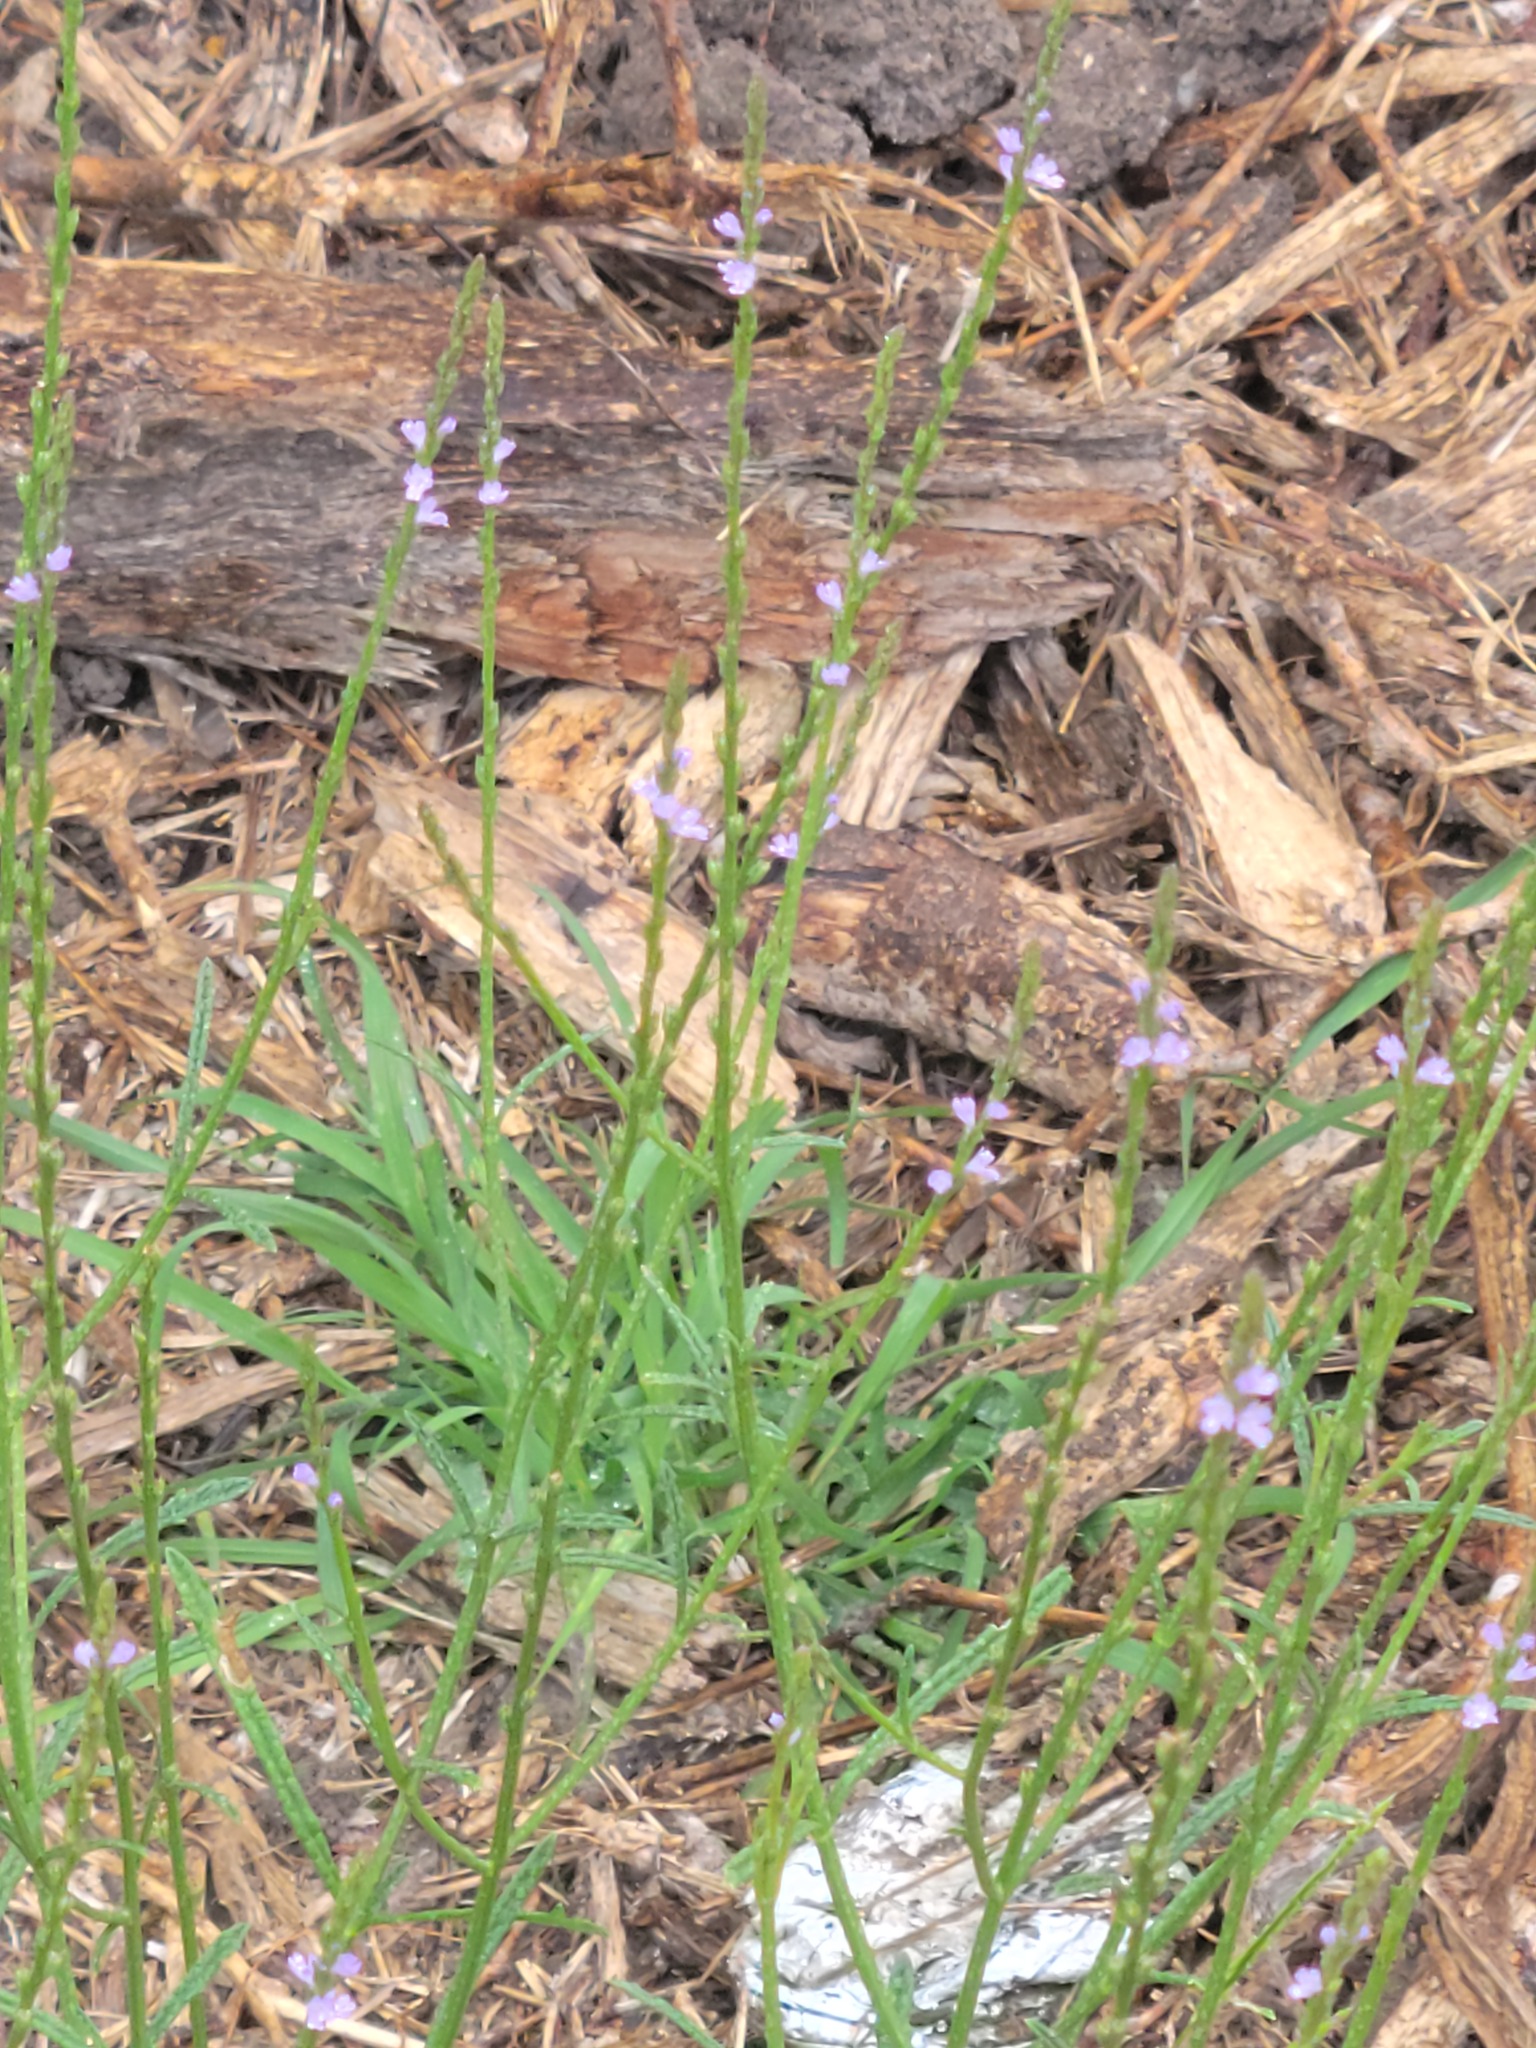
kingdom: Plantae
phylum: Tracheophyta
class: Magnoliopsida
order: Lamiales
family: Verbenaceae
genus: Verbena
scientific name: Verbena halei
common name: Texas vervain
